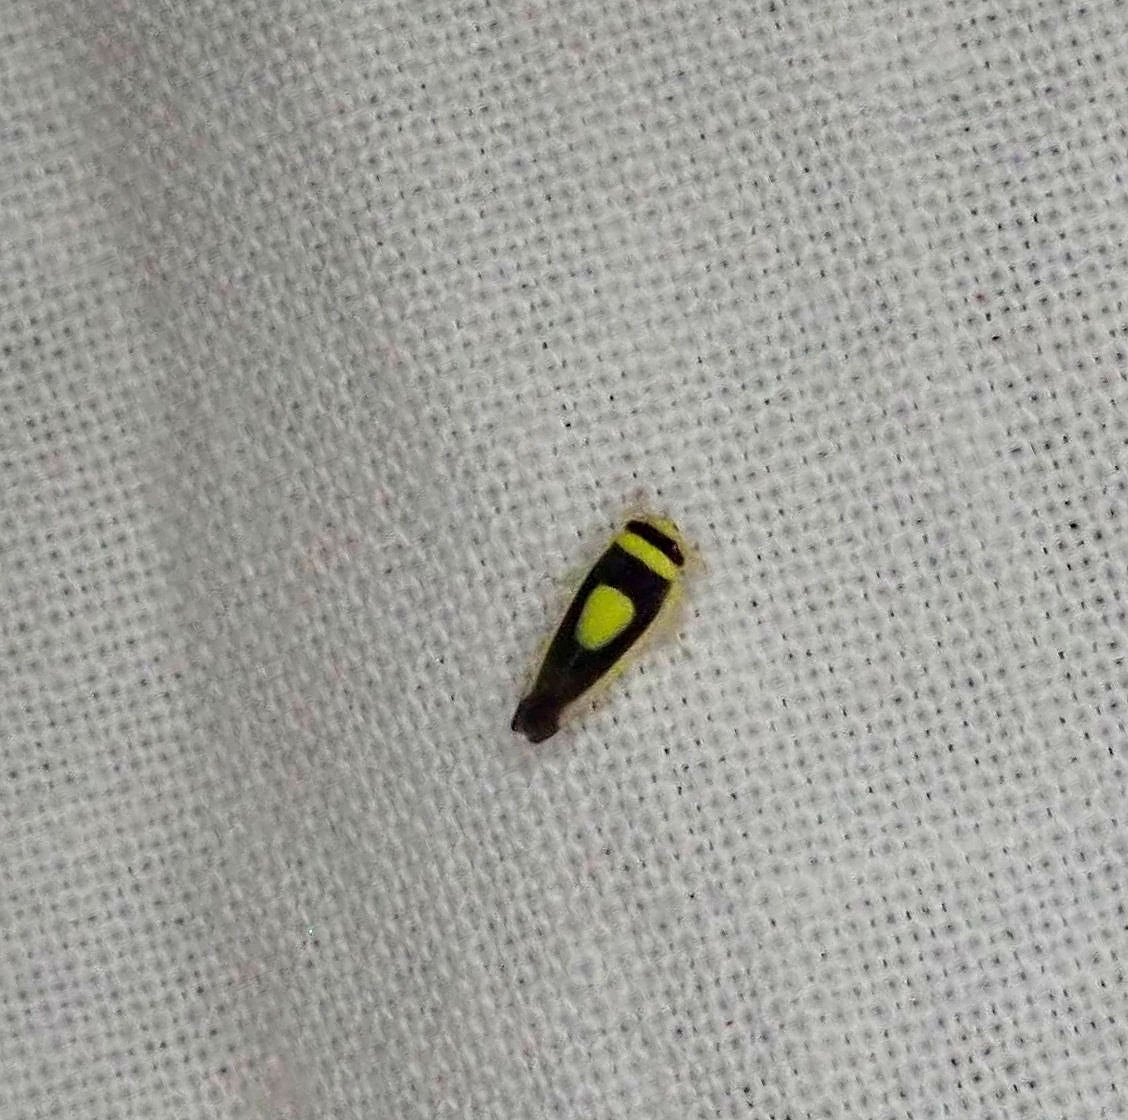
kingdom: Animalia
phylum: Arthropoda
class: Insecta
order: Hemiptera
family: Cicadellidae
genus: Colladonus
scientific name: Colladonus clitellarius
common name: The saddleback leafhopper
